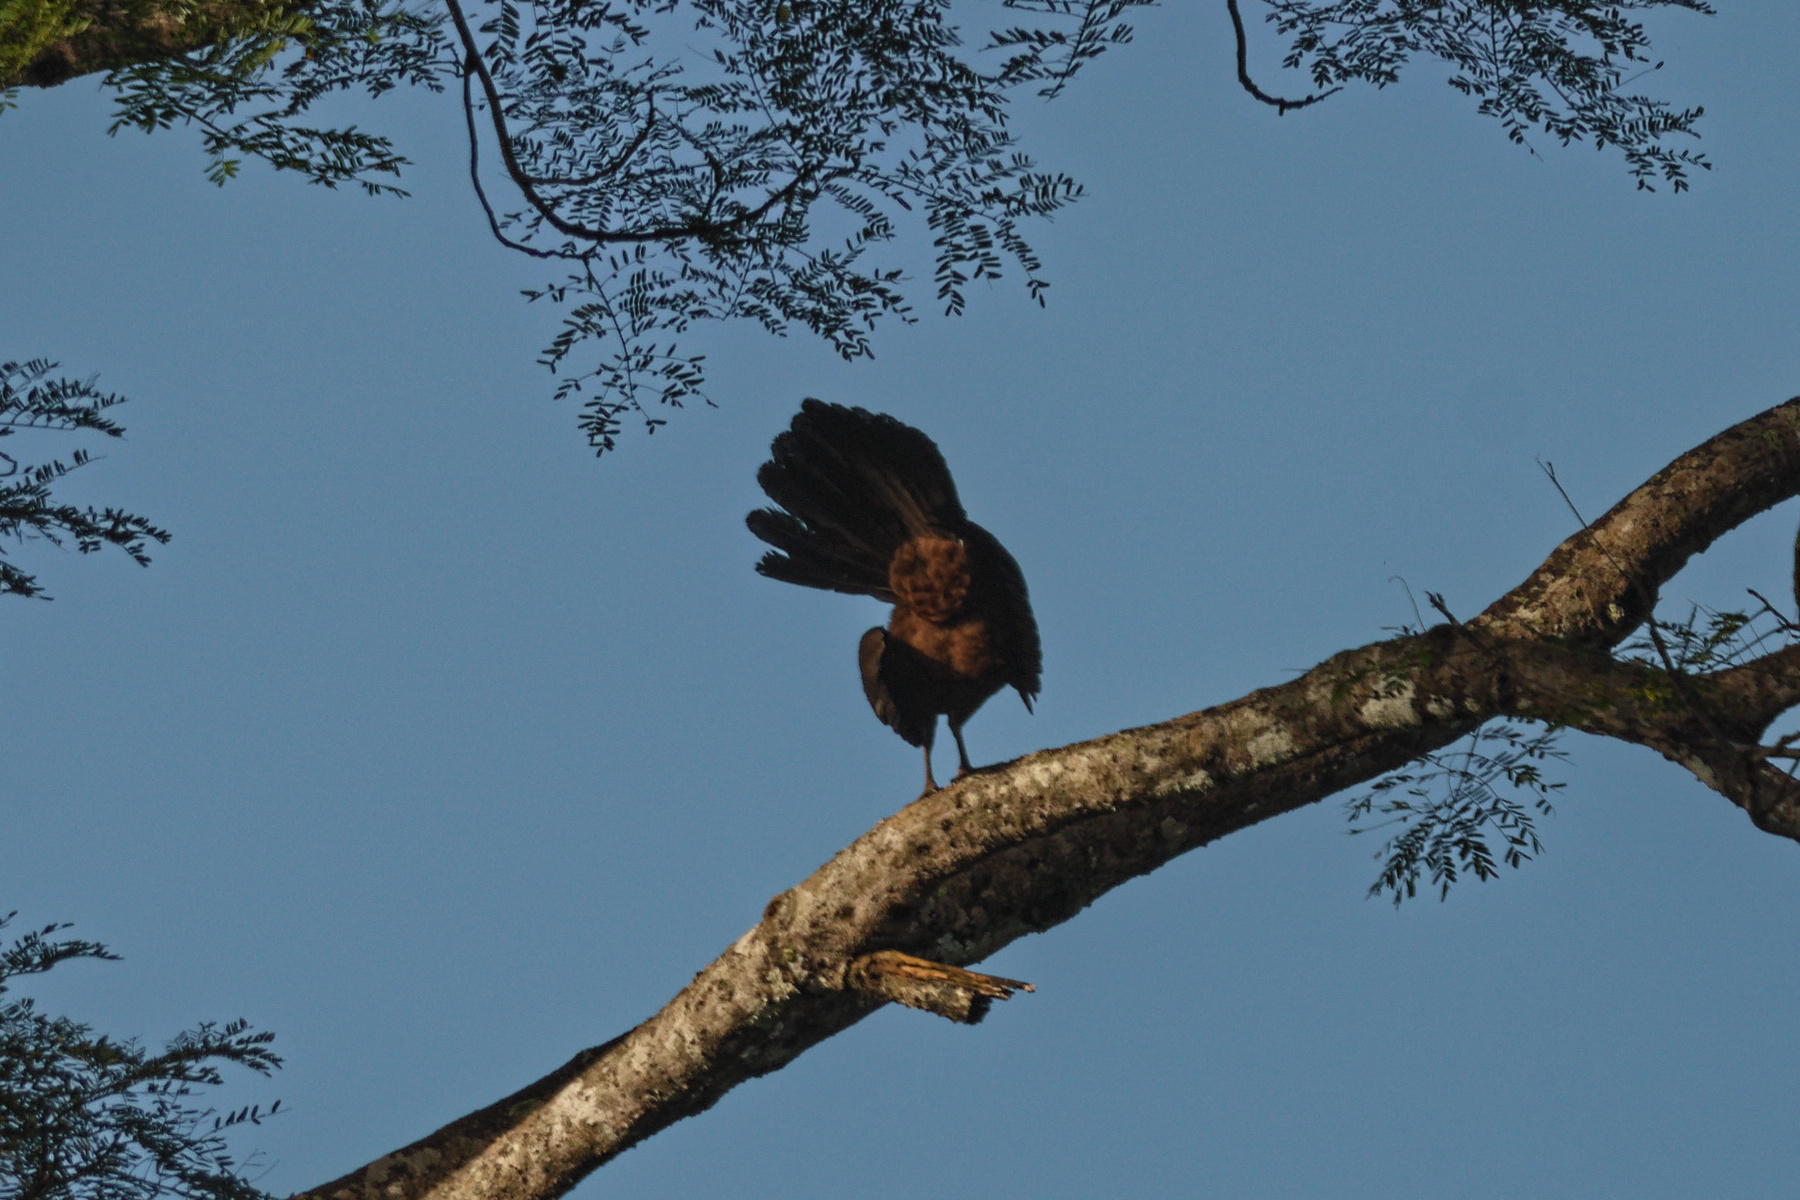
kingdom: Animalia
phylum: Chordata
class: Aves
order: Galliformes
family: Cracidae
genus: Penelope
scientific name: Penelope purpurascens
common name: Crested guan
